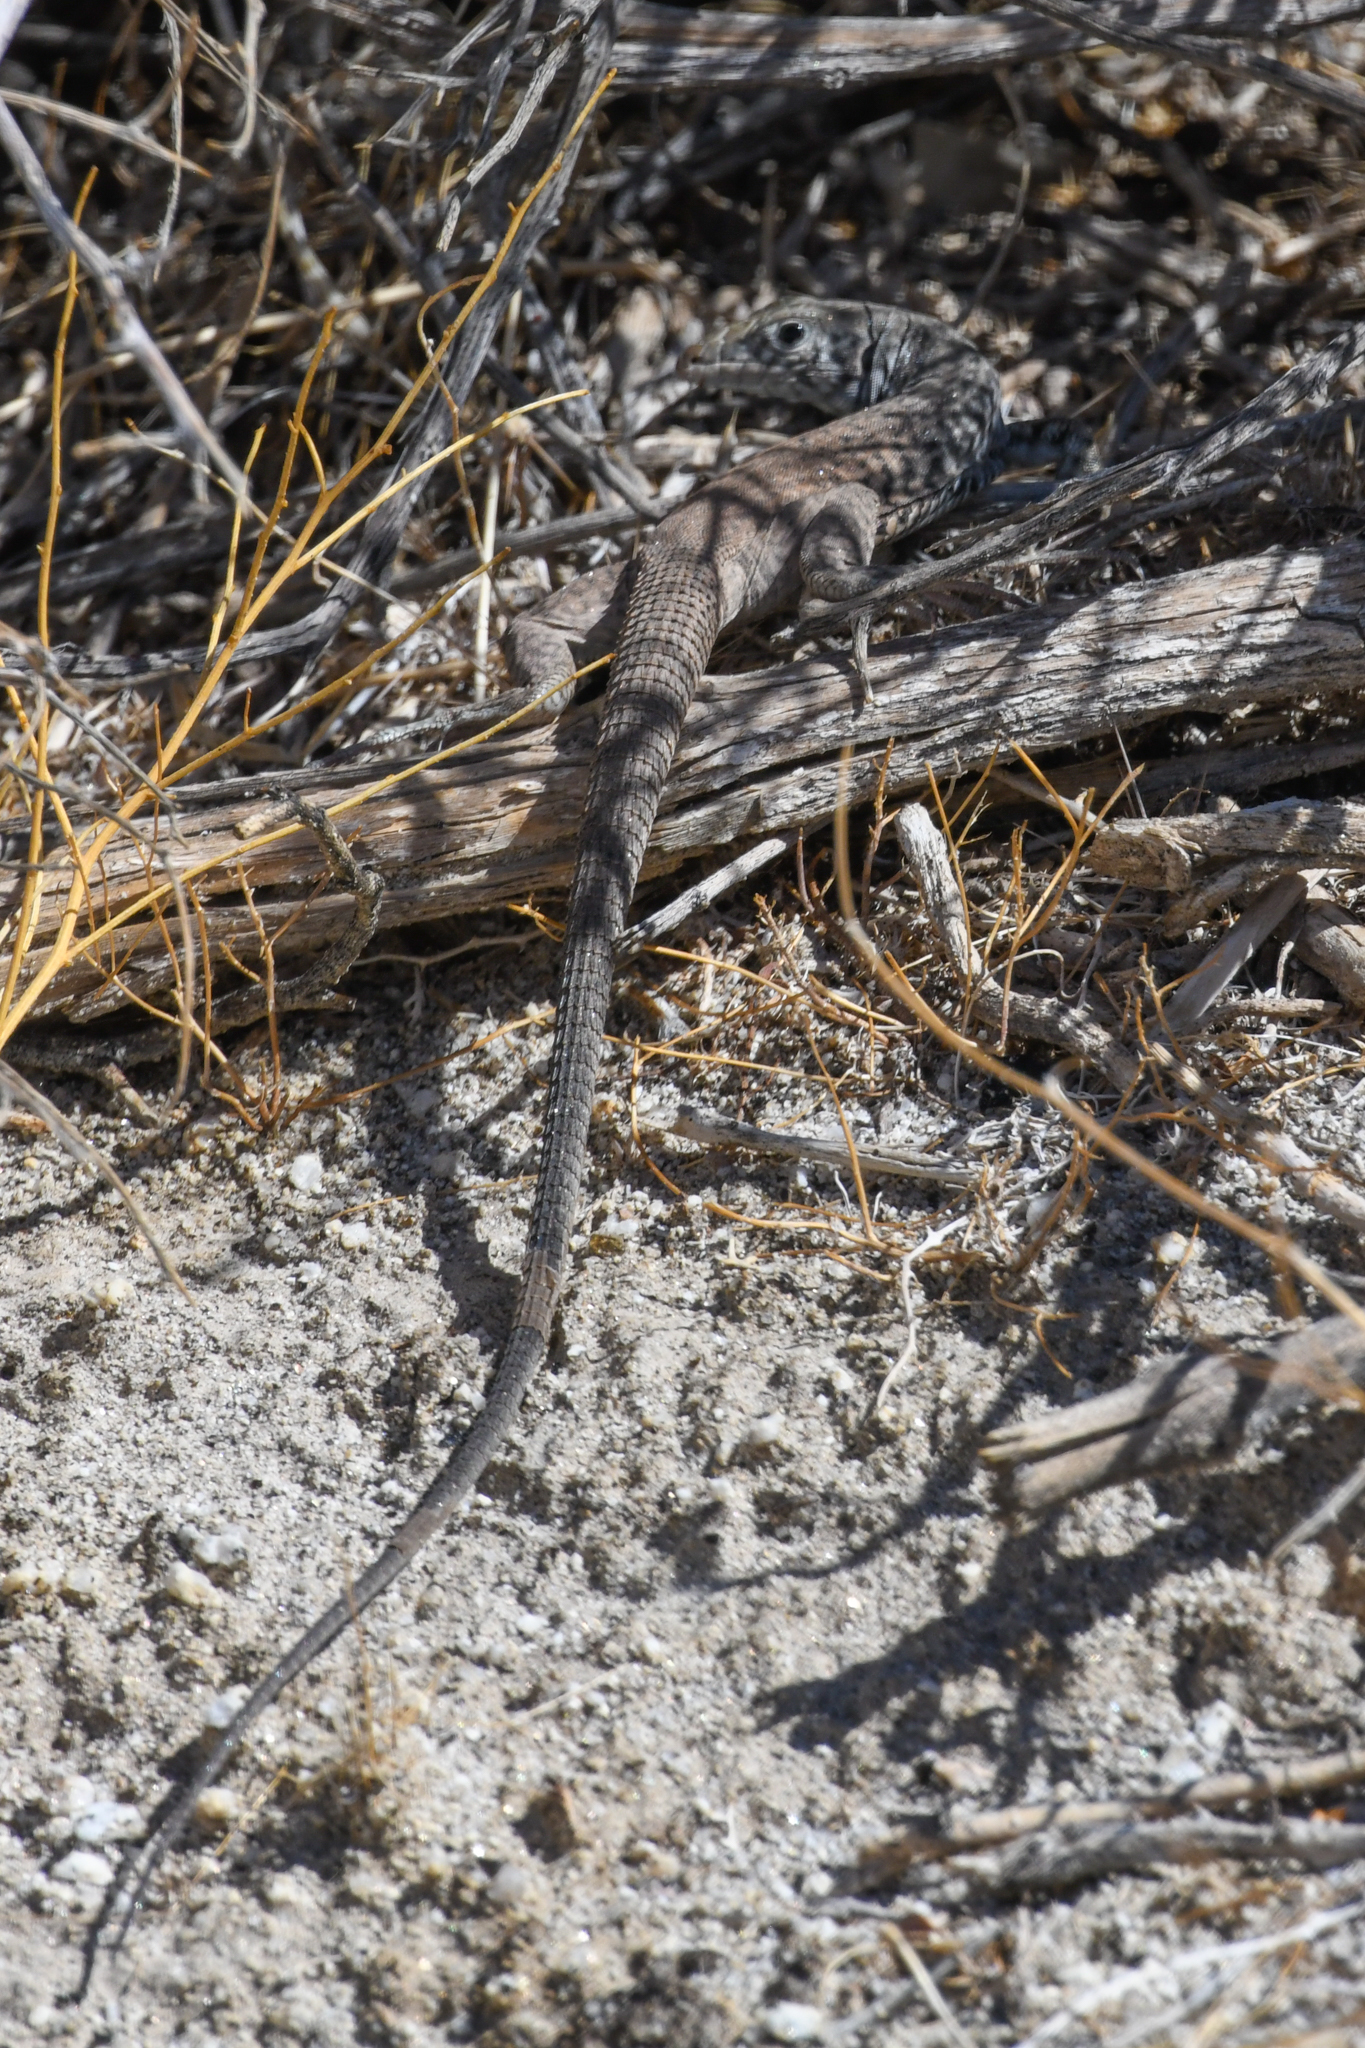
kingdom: Animalia
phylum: Chordata
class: Squamata
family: Teiidae
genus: Aspidoscelis
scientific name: Aspidoscelis tigris
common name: Tiger whiptail
